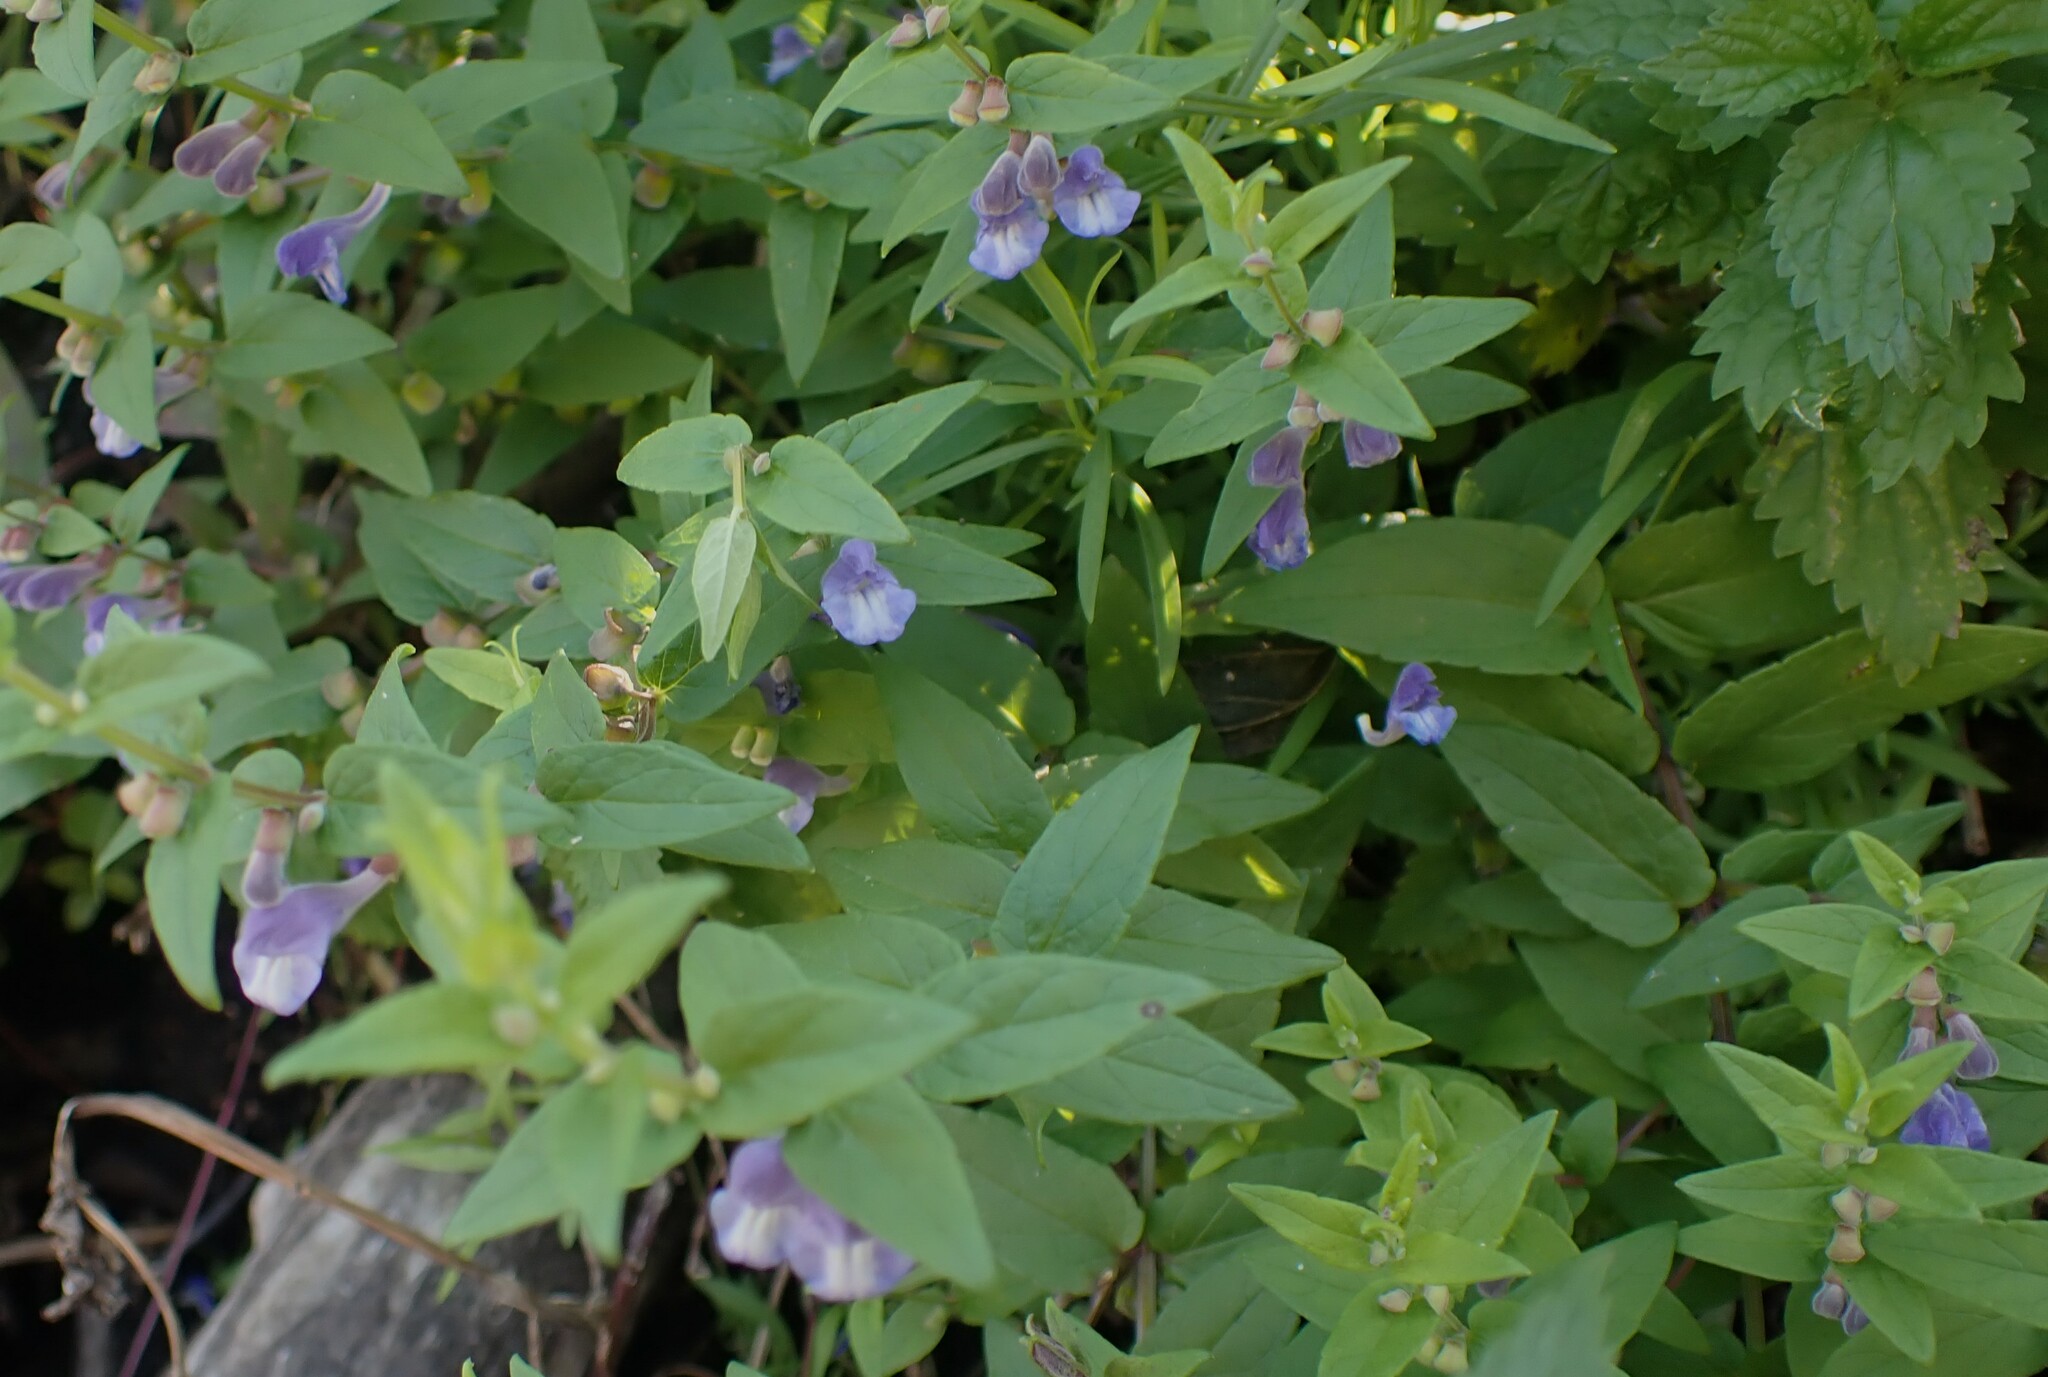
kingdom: Plantae
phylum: Tracheophyta
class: Magnoliopsida
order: Lamiales
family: Lamiaceae
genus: Scutellaria
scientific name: Scutellaria galericulata
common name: Skullcap
